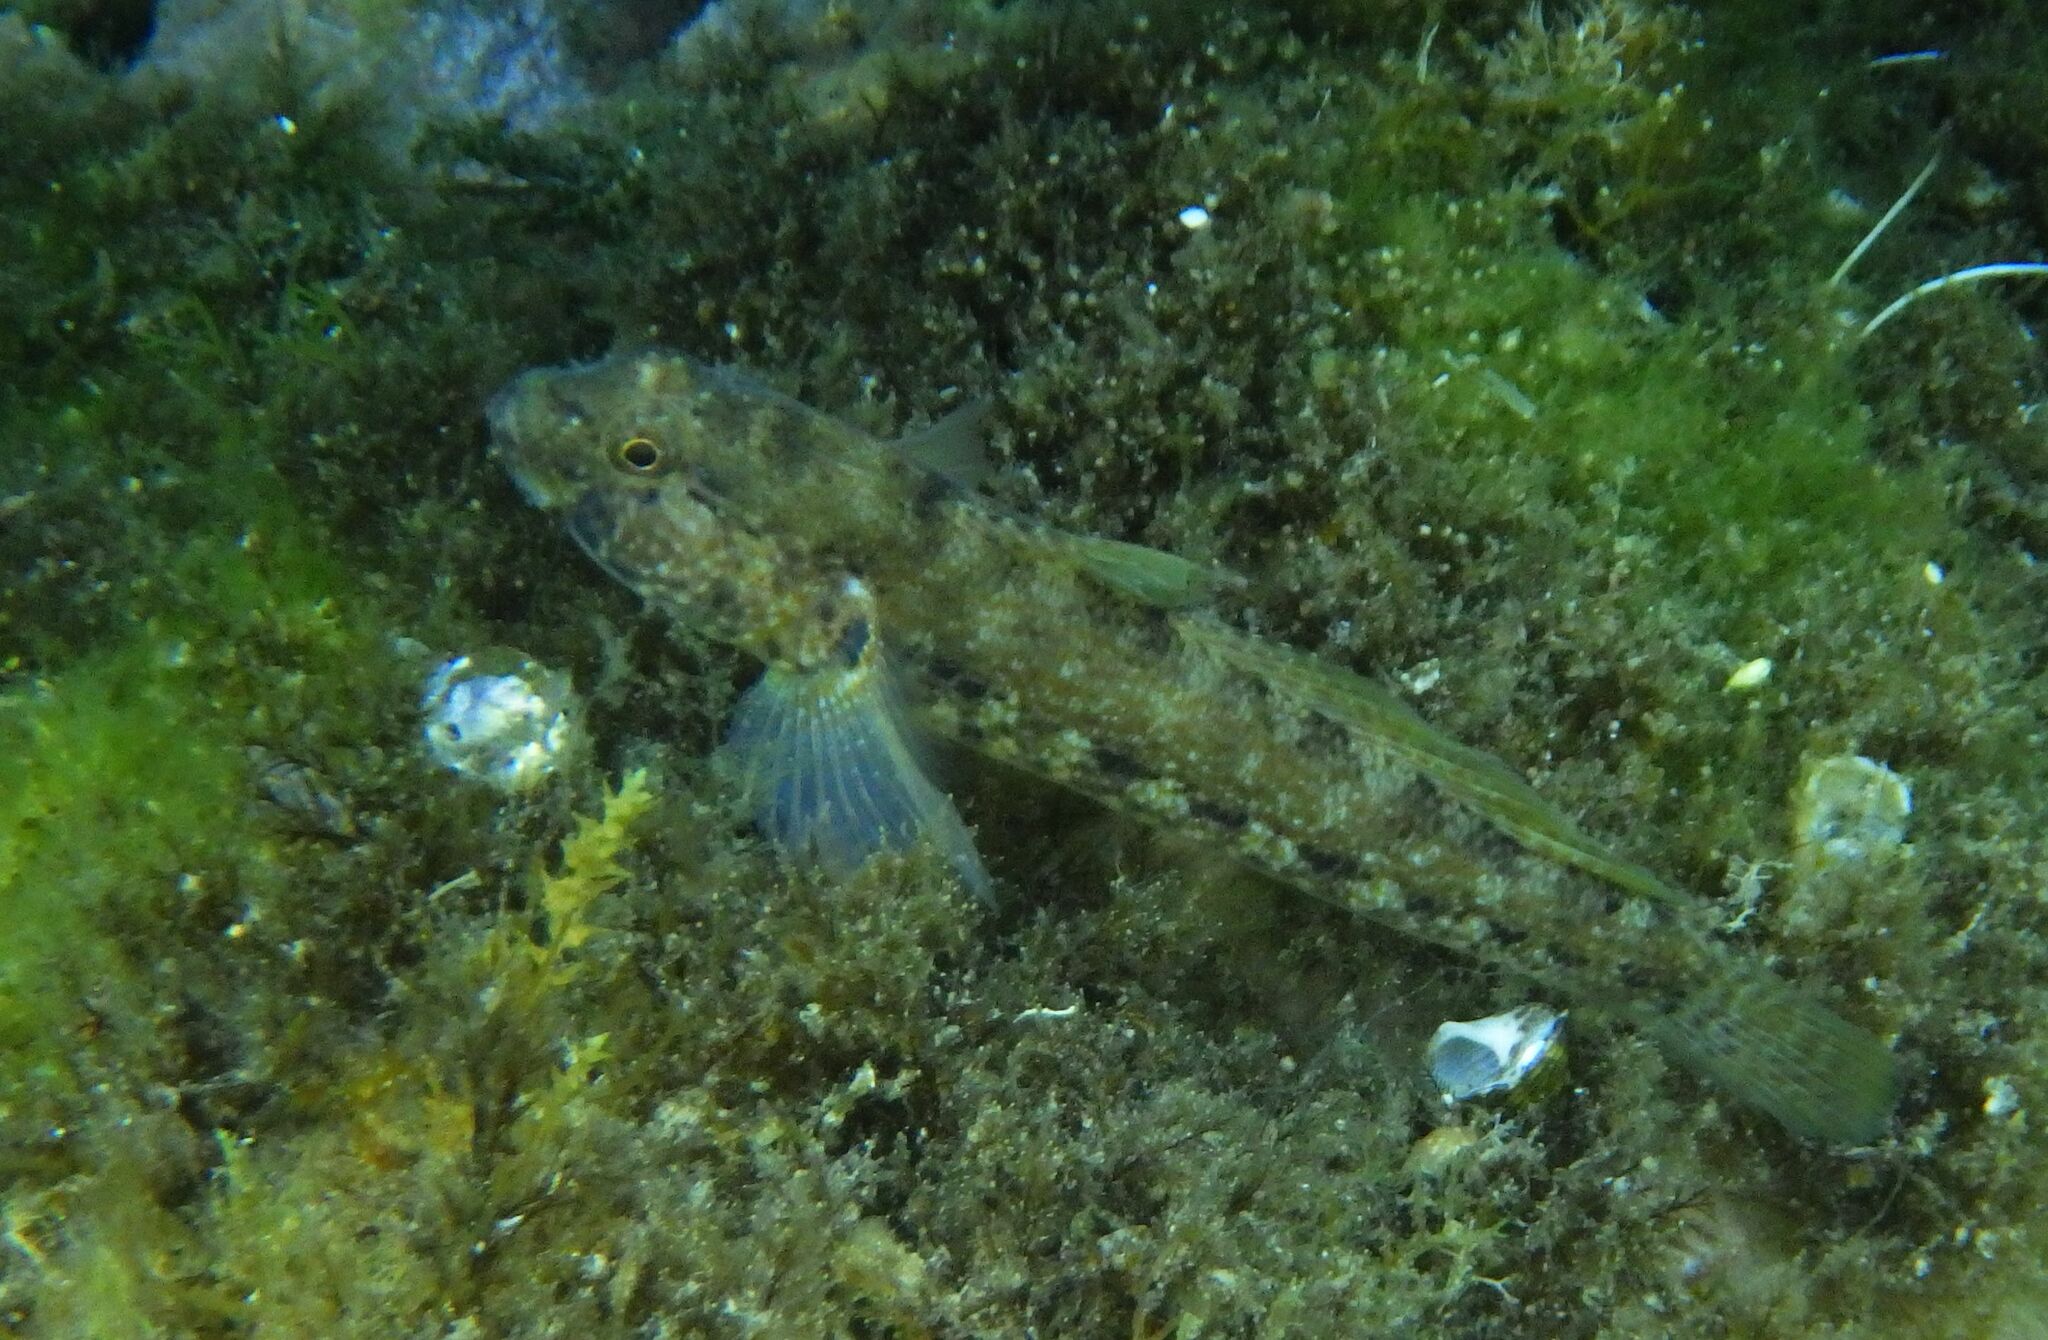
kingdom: Animalia
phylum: Chordata
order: Perciformes
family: Gobiidae
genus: Gobius
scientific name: Gobius incognitus
